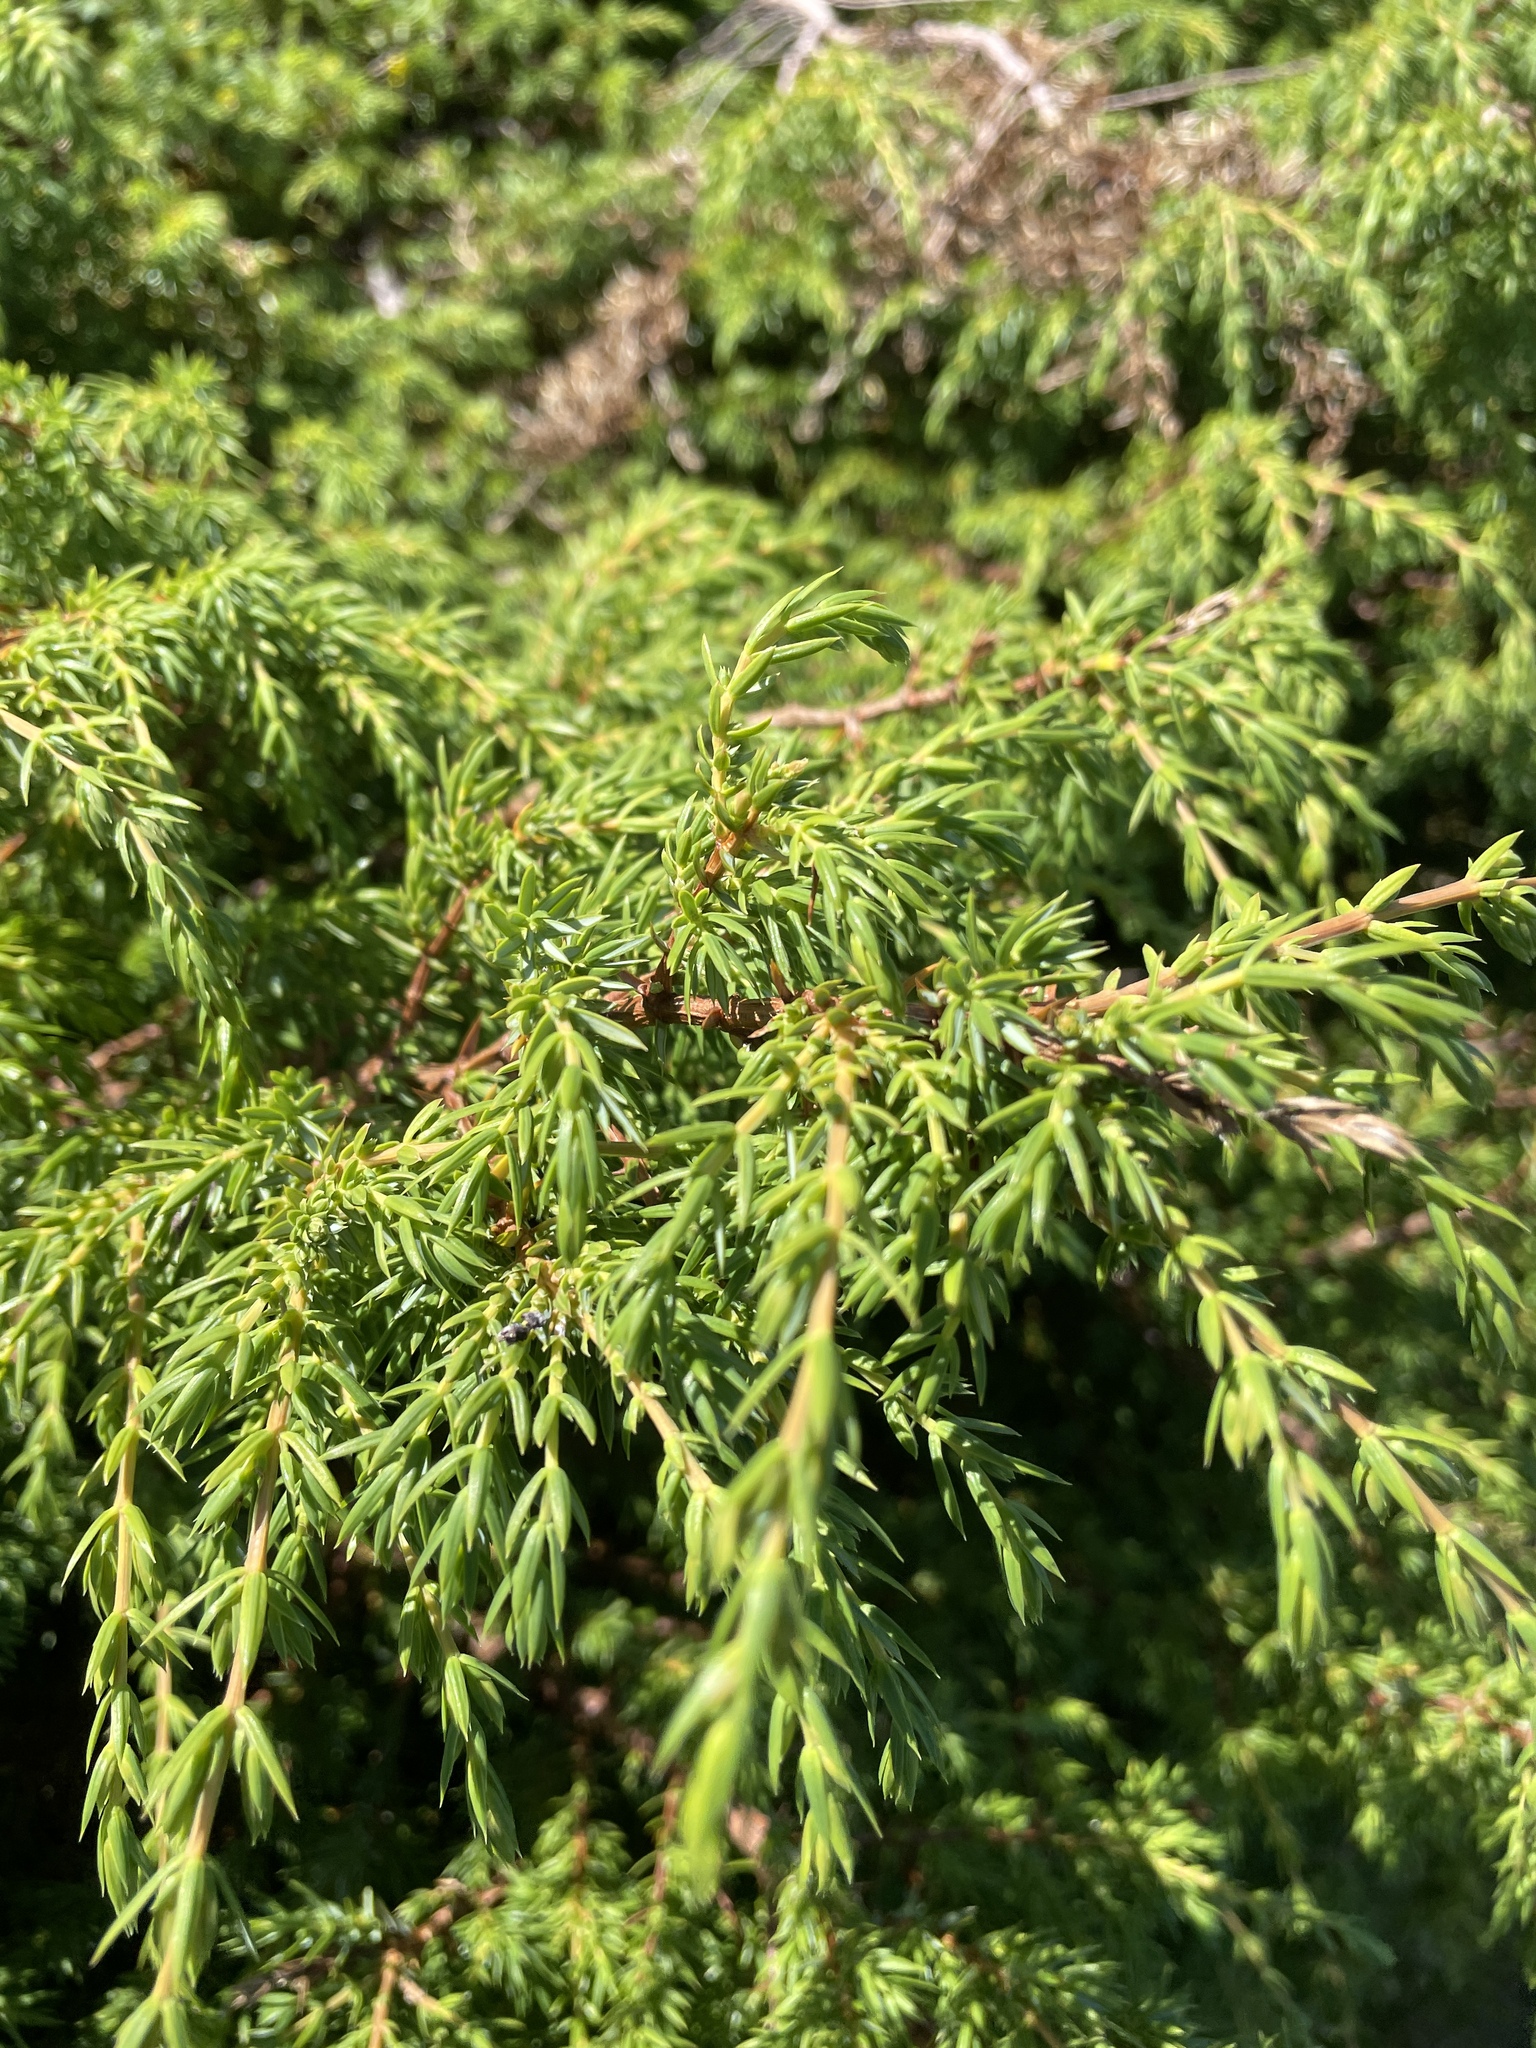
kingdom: Plantae
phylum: Tracheophyta
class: Pinopsida
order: Pinales
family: Cupressaceae
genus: Juniperus
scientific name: Juniperus communis
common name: Common juniper
